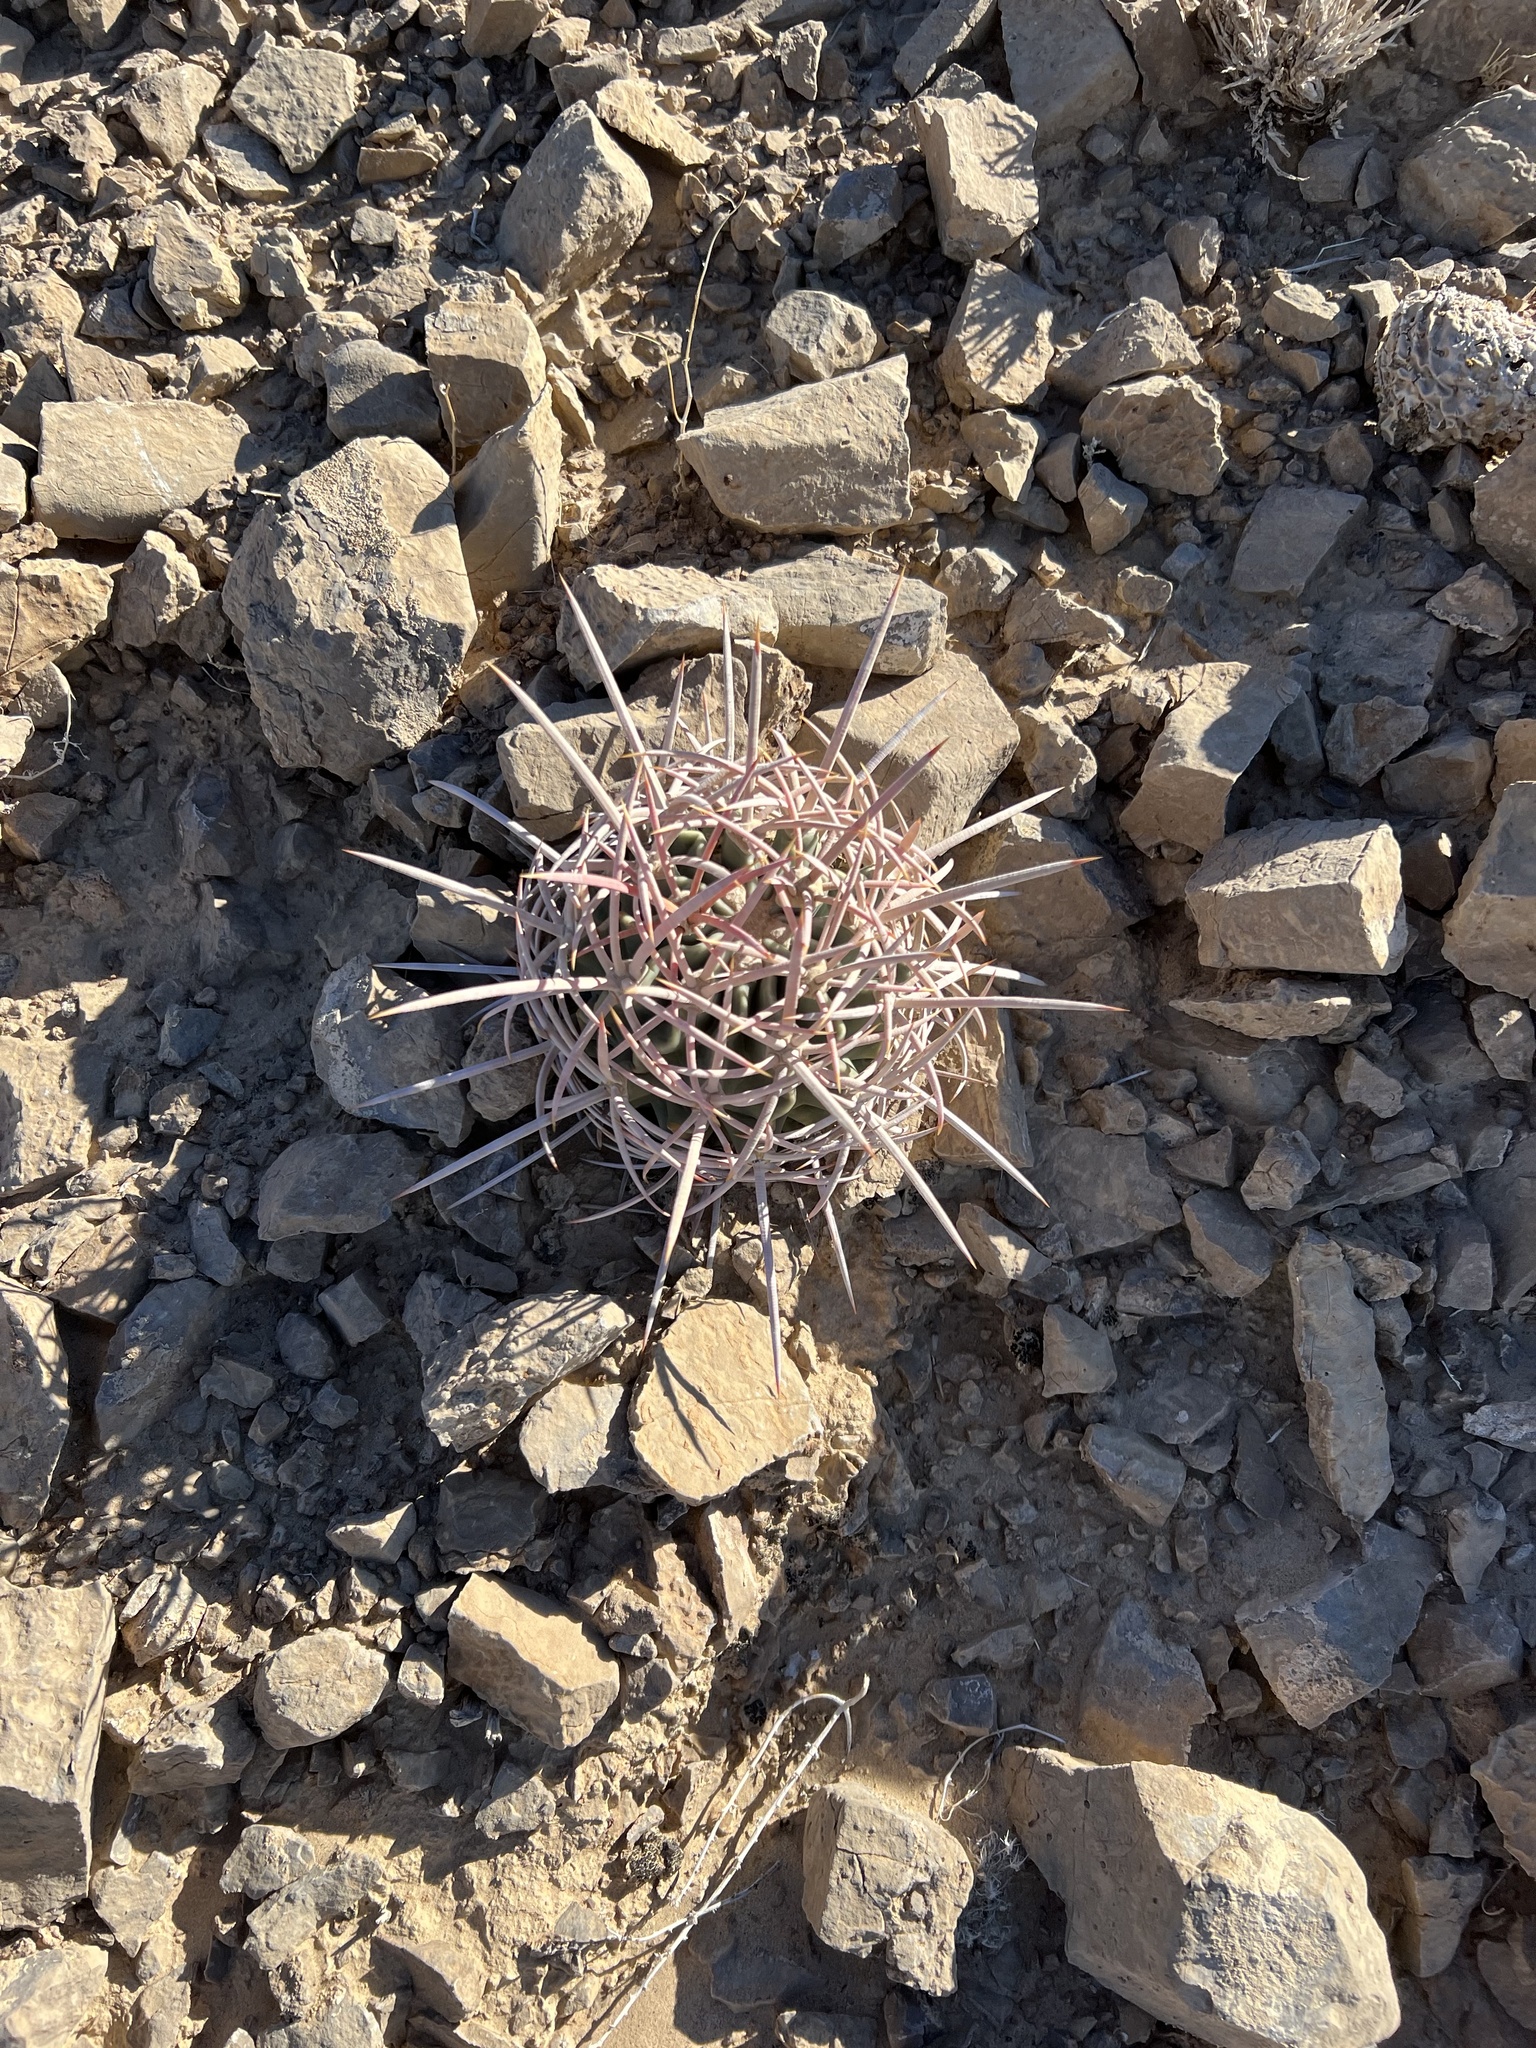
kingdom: Plantae
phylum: Tracheophyta
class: Magnoliopsida
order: Caryophyllales
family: Cactaceae
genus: Echinocactus
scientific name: Echinocactus polycephalus
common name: Cottontop cactus
